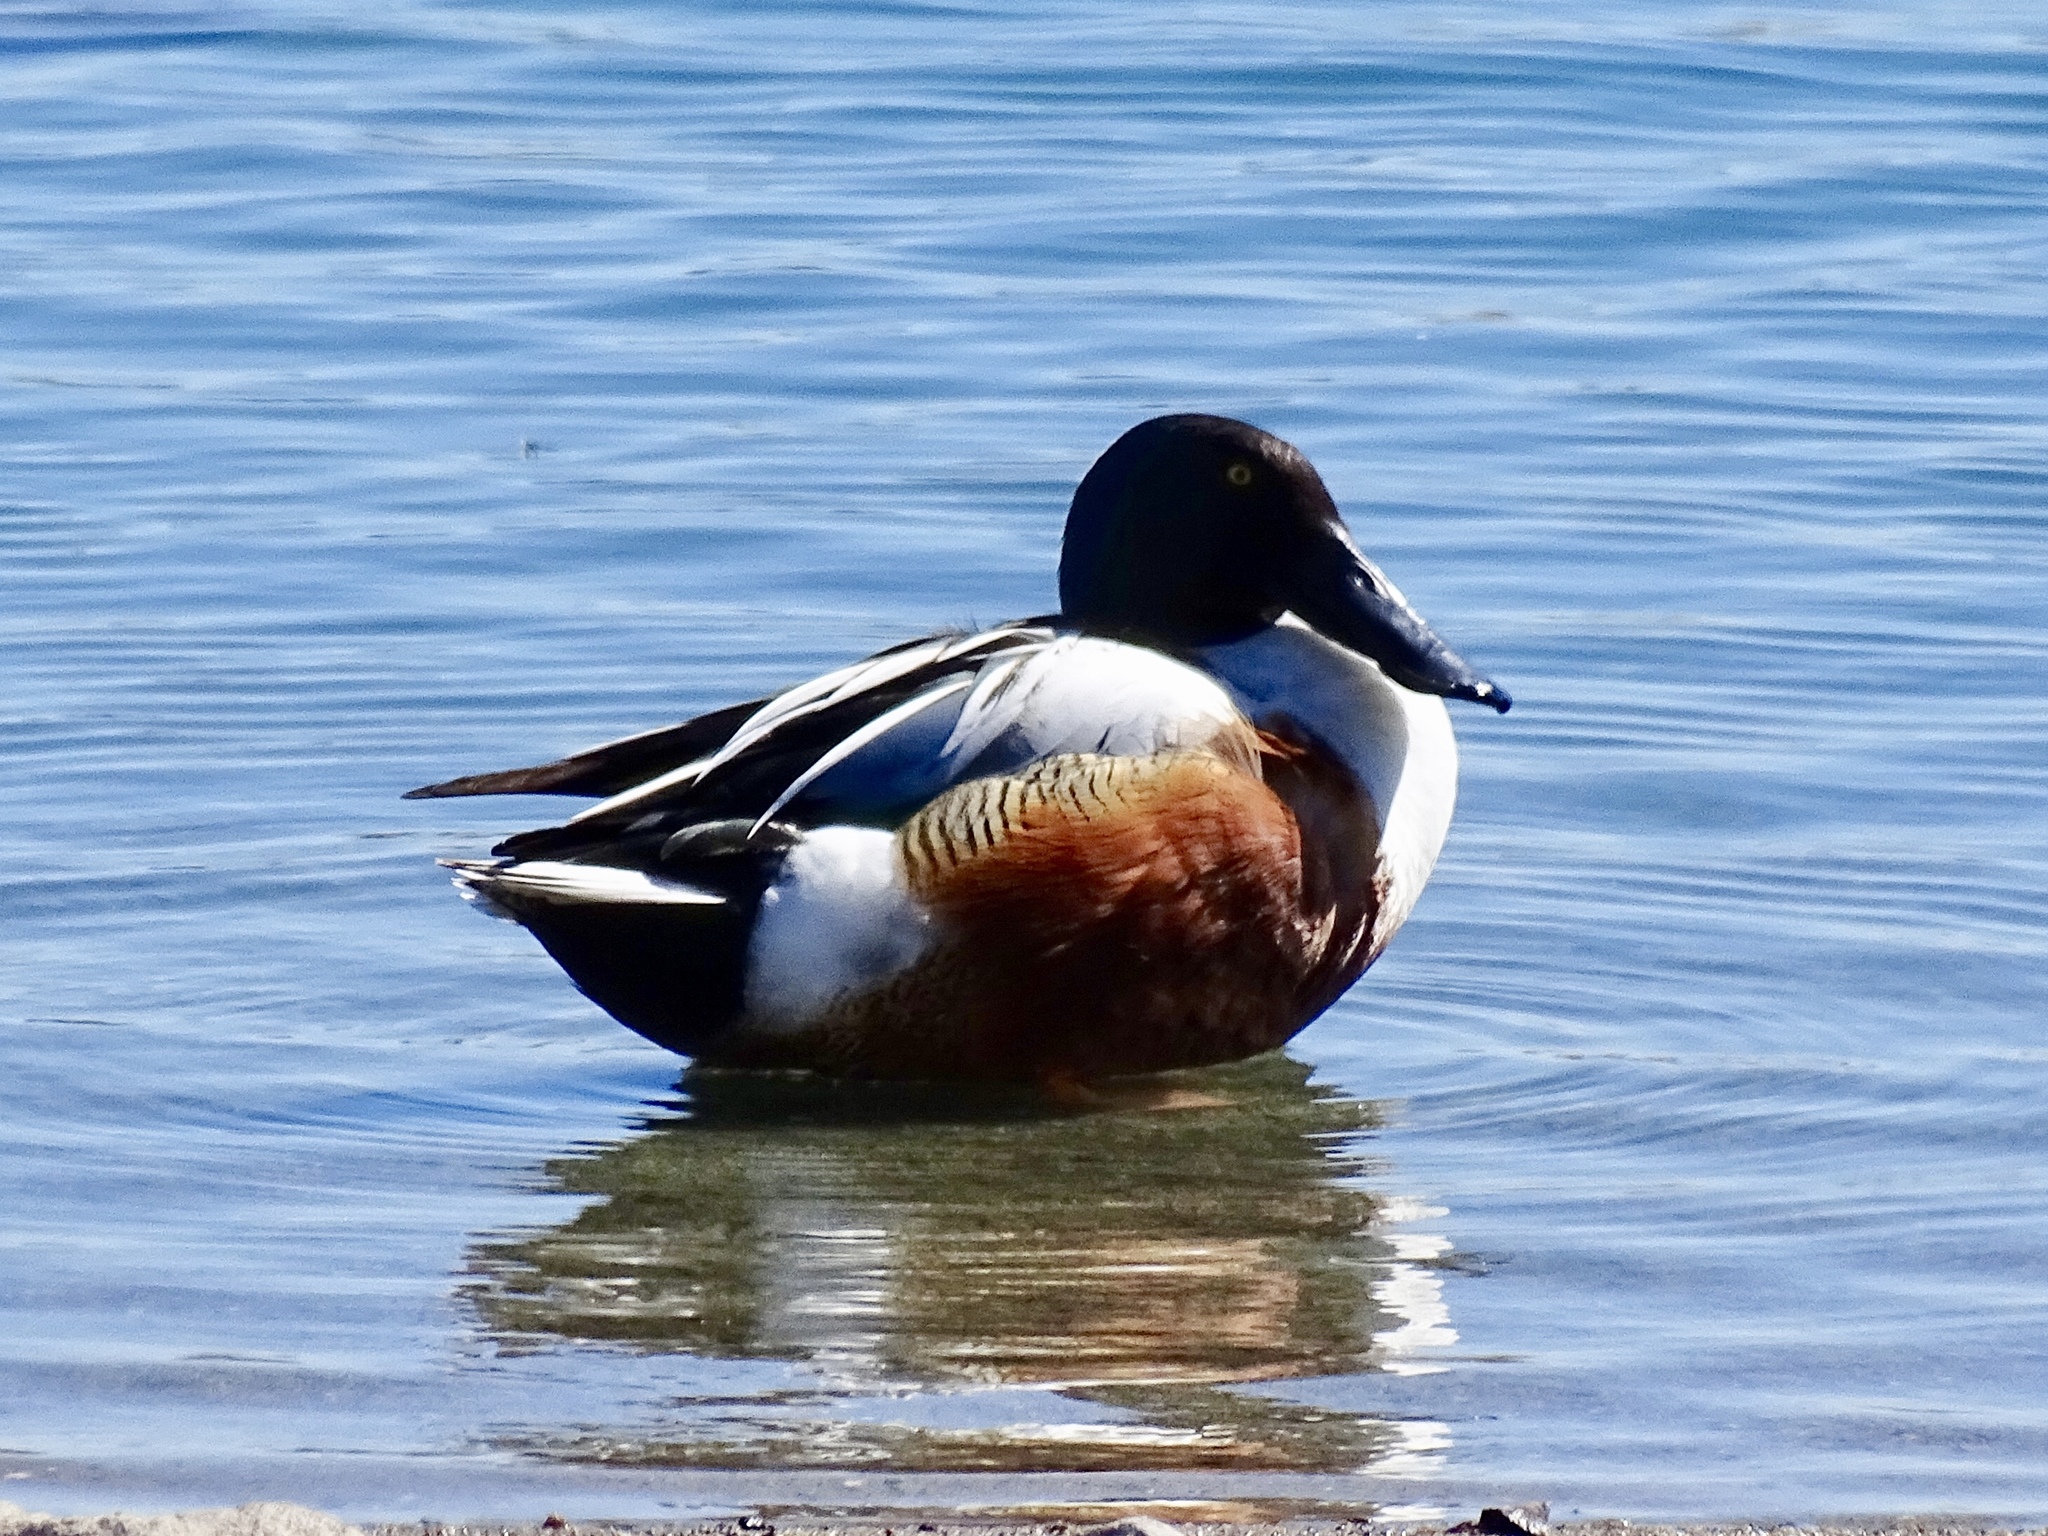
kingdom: Animalia
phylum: Chordata
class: Aves
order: Anseriformes
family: Anatidae
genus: Spatula
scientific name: Spatula clypeata
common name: Northern shoveler
